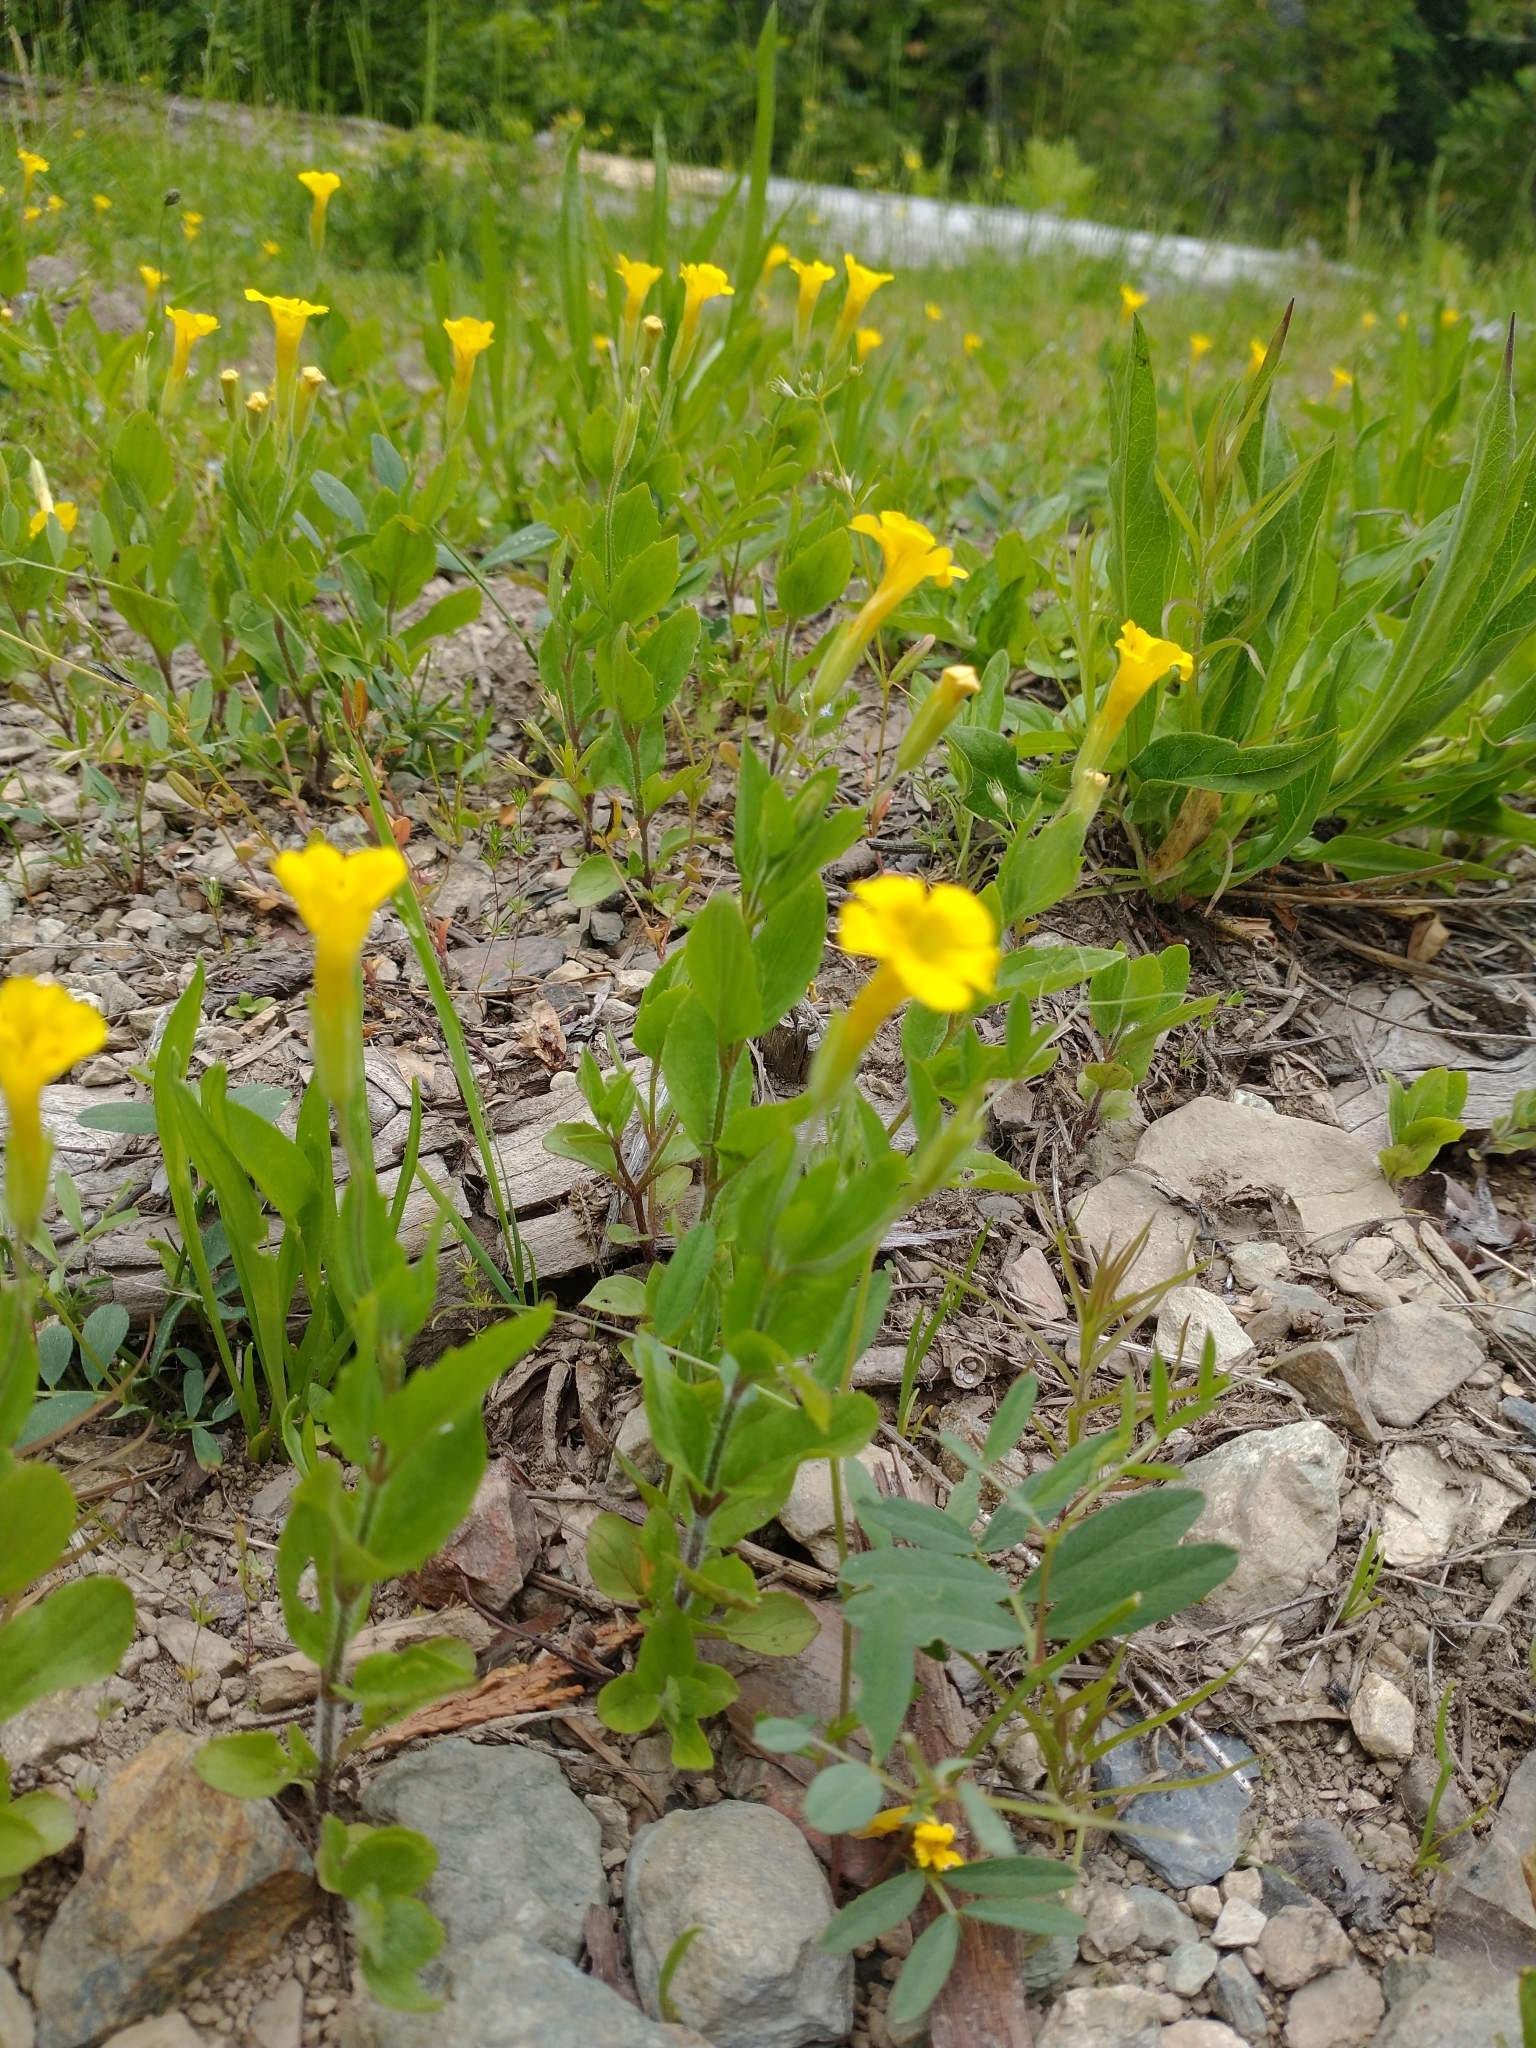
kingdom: Plantae
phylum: Tracheophyta
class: Magnoliopsida
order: Lamiales
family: Phrymaceae
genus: Erythranthe
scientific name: Erythranthe moschata
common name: Muskflower
